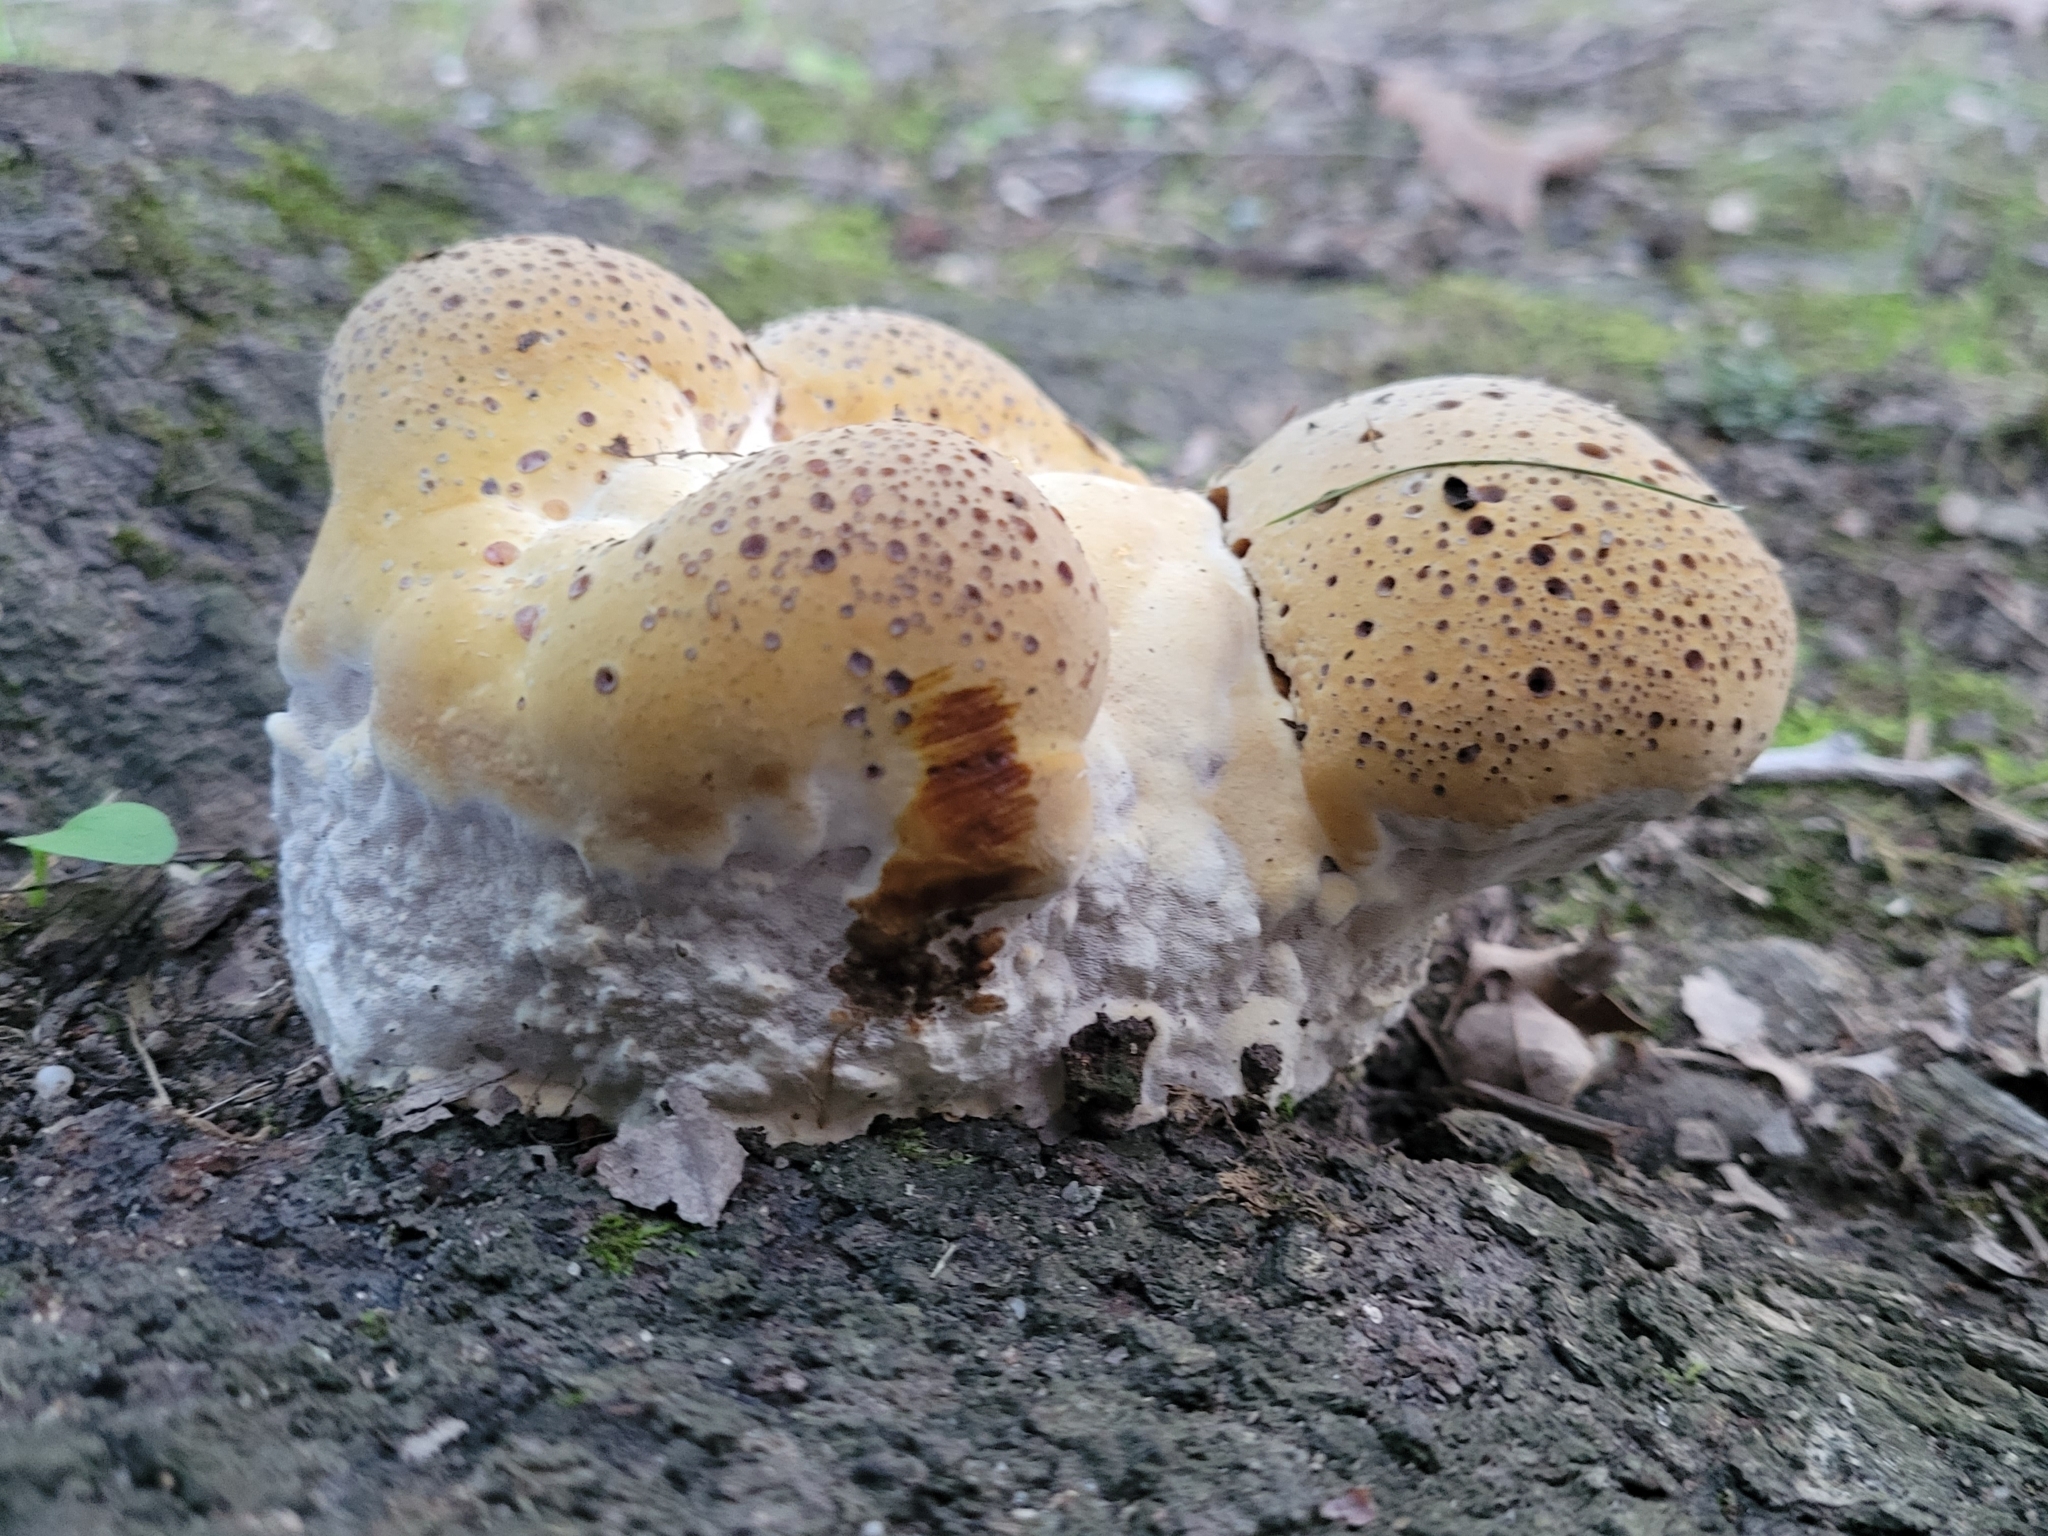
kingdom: Fungi
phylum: Basidiomycota
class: Agaricomycetes
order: Hymenochaetales
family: Hymenochaetaceae
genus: Pseudoinonotus
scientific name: Pseudoinonotus dryadeus
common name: Oak bracket
